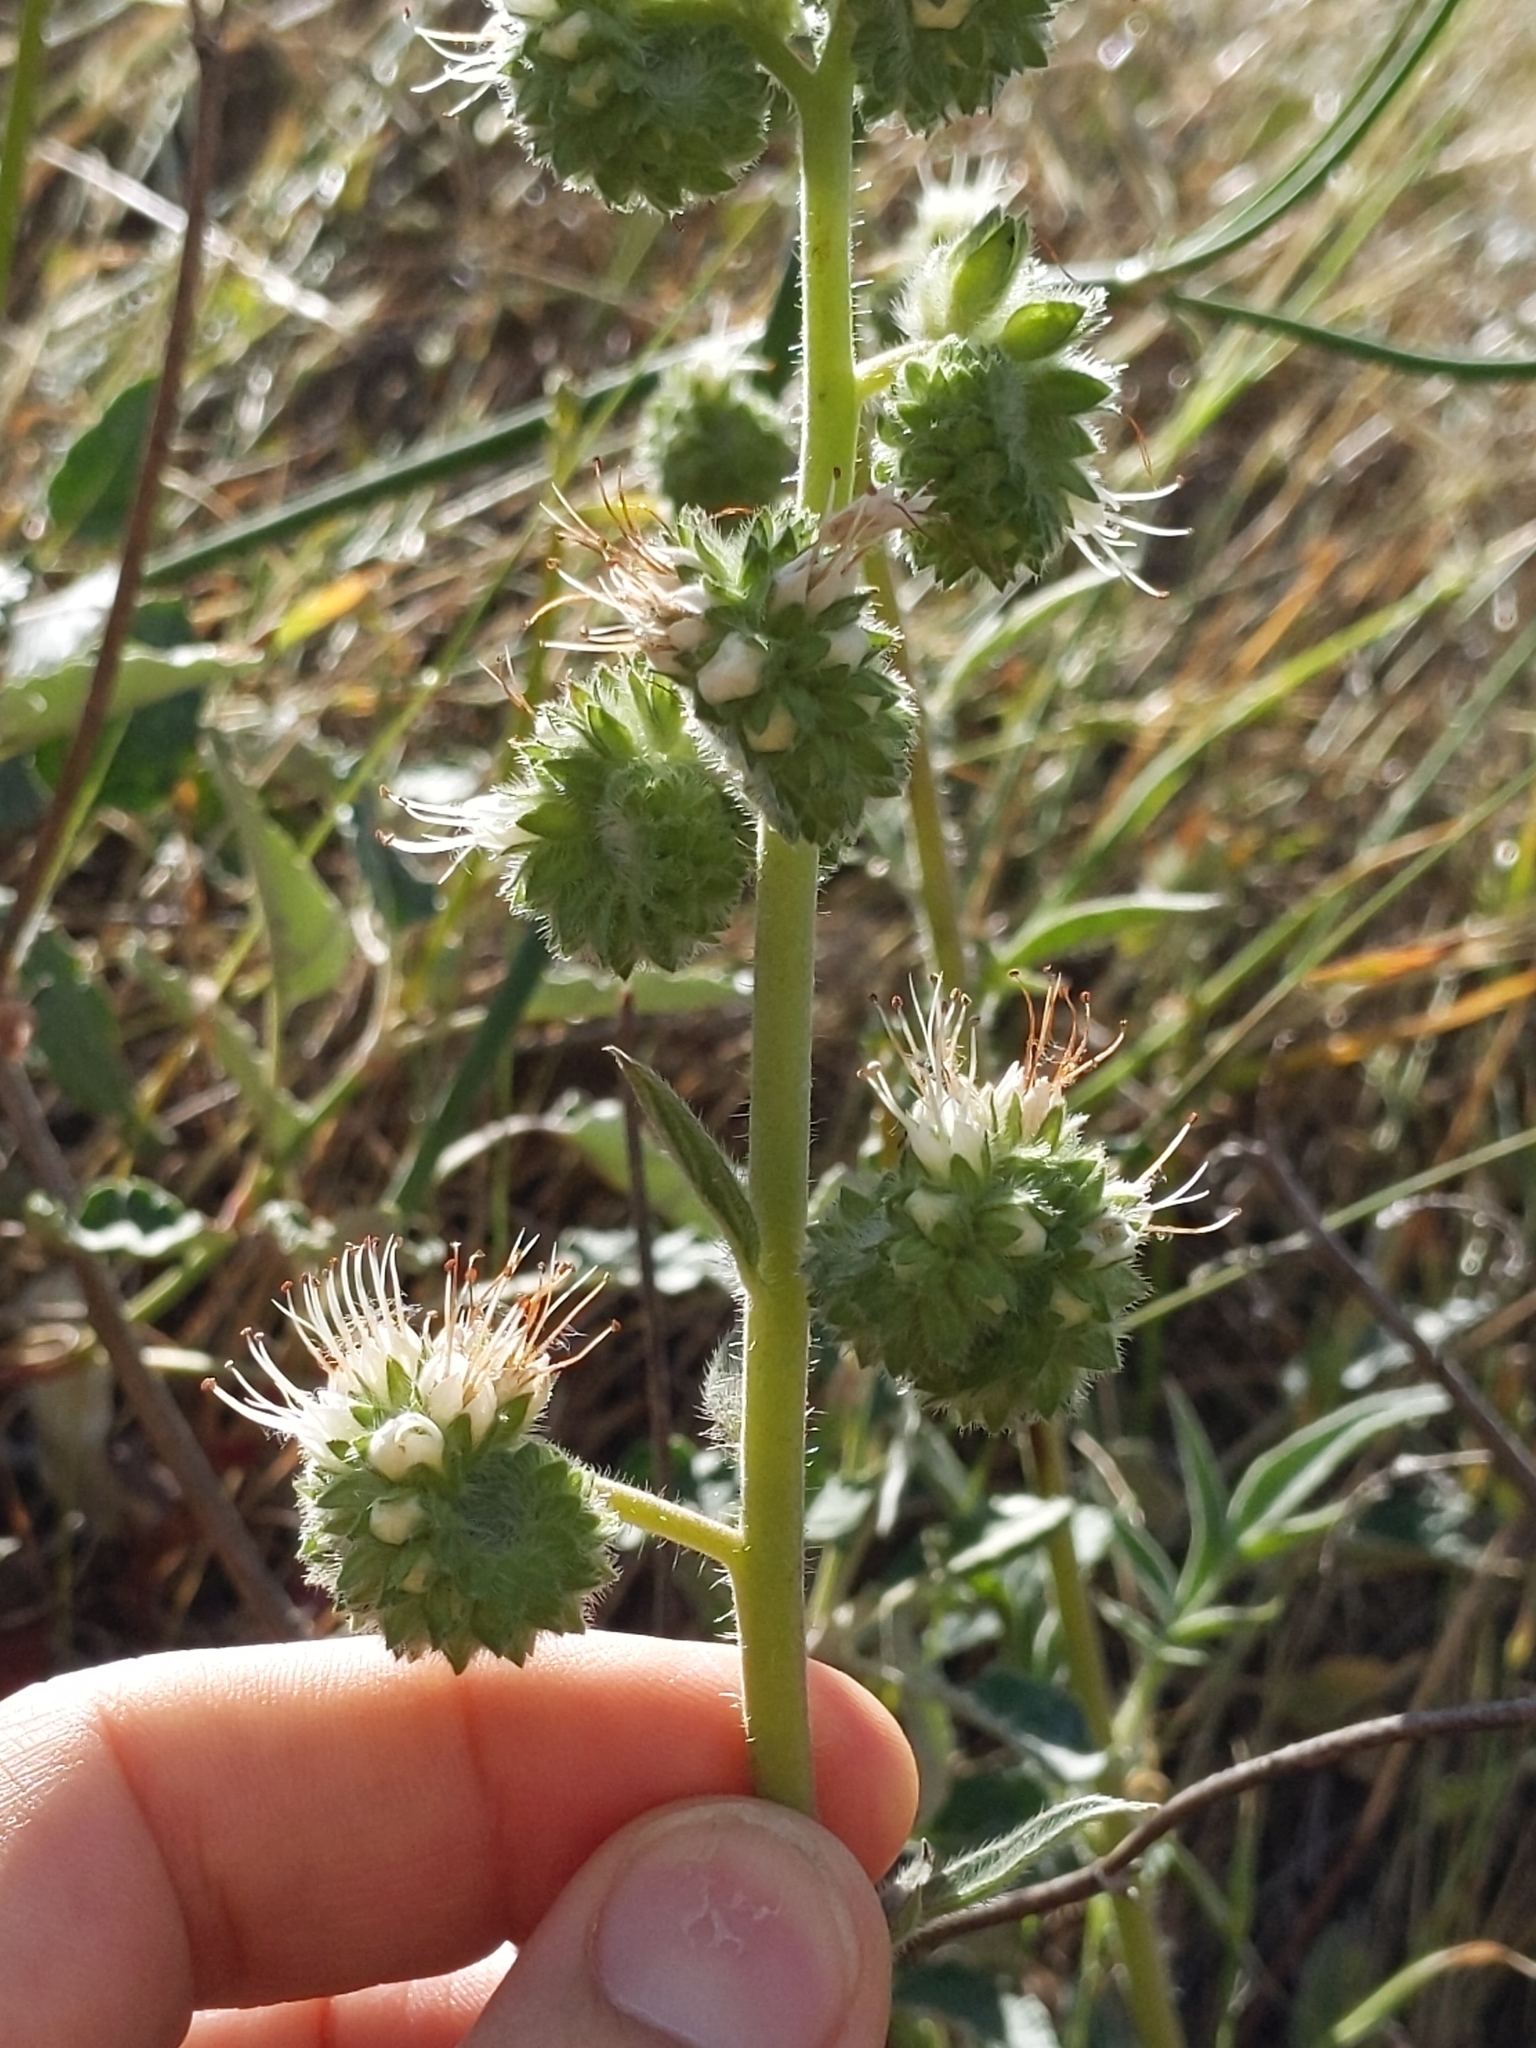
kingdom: Plantae
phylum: Tracheophyta
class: Magnoliopsida
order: Boraginales
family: Hydrophyllaceae
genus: Phacelia
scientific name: Phacelia imbricata
